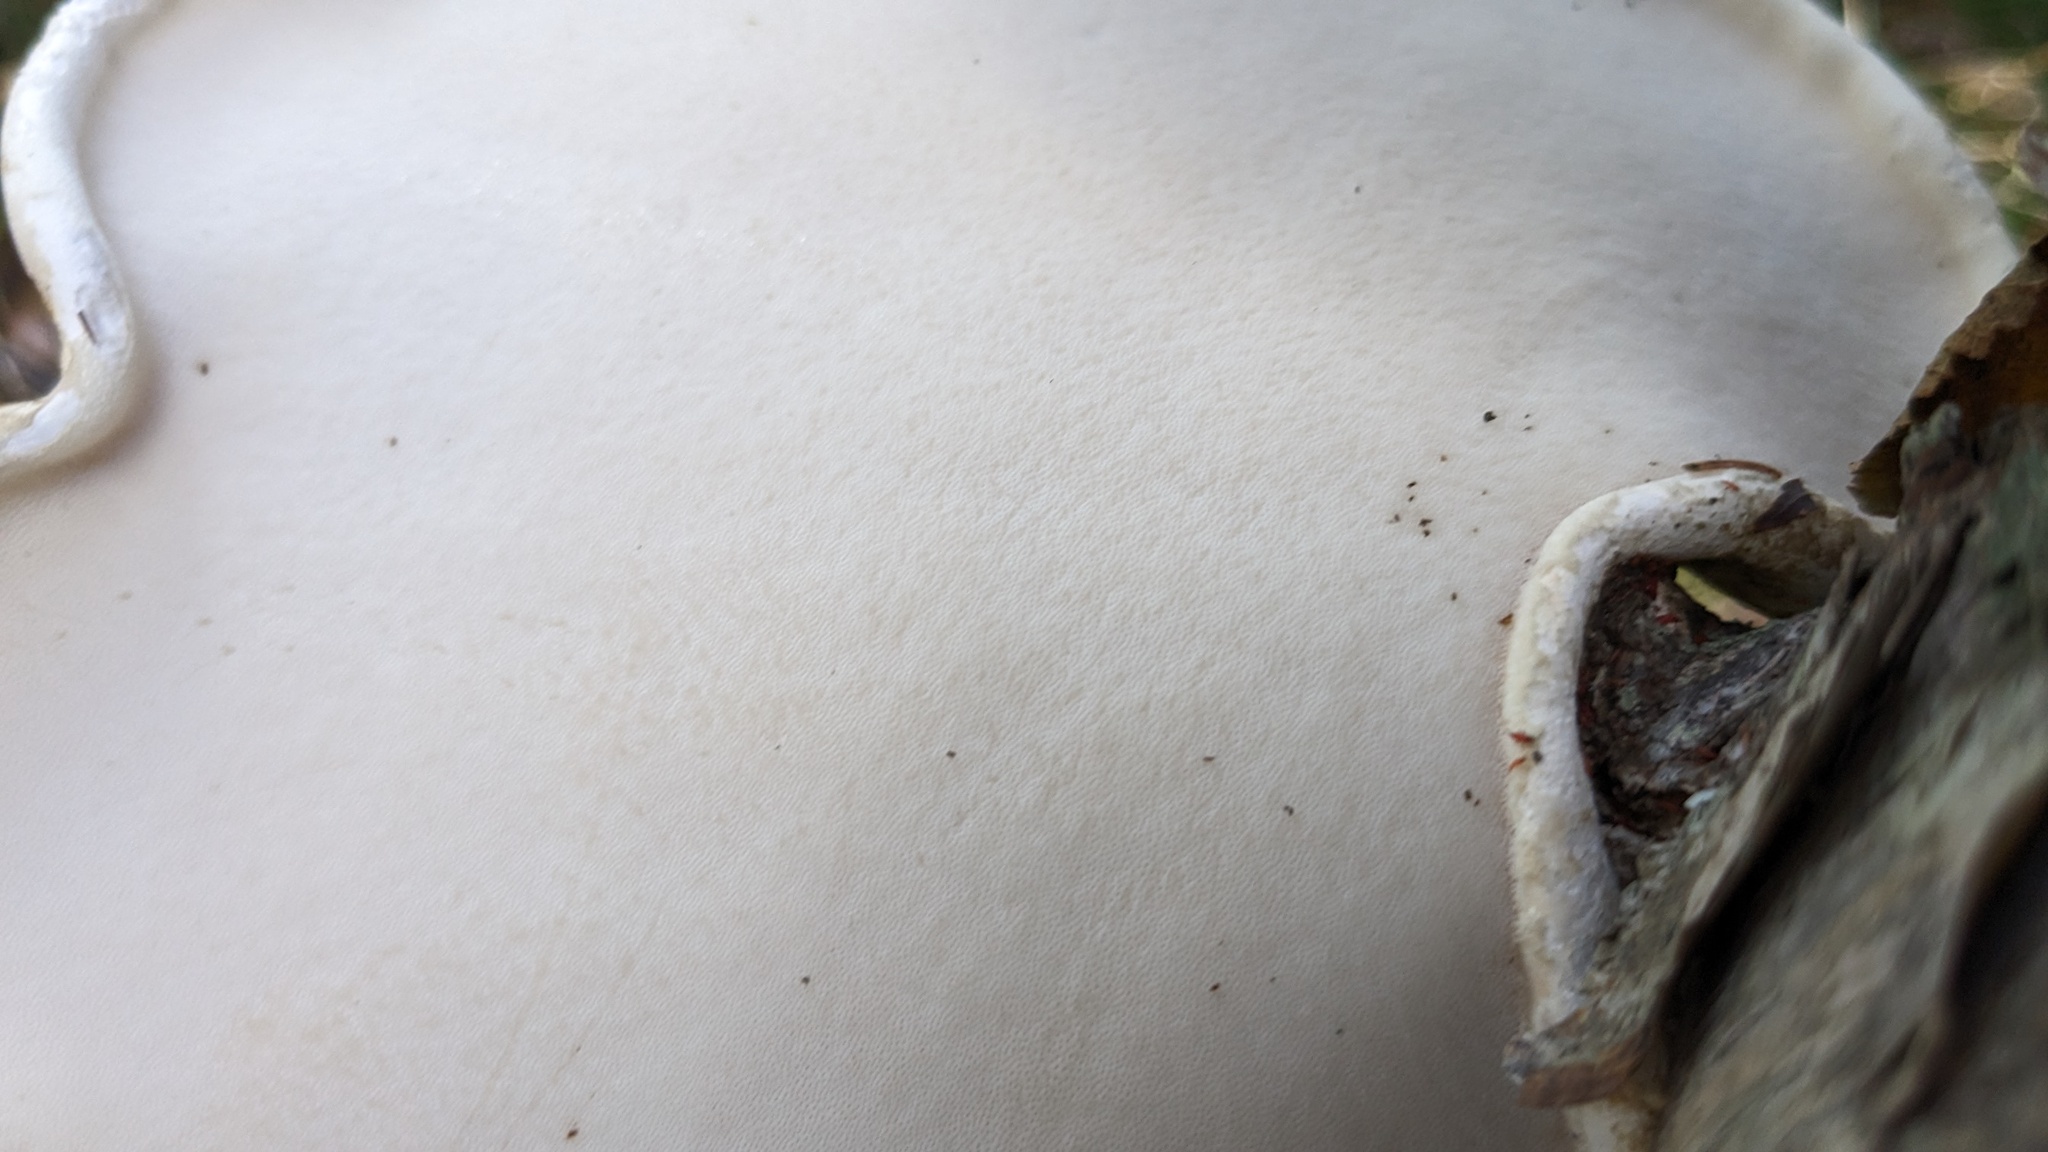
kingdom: Fungi
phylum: Basidiomycota
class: Agaricomycetes
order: Polyporales
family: Fomitopsidaceae
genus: Fomitopsis
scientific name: Fomitopsis betulina
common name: Birch polypore
